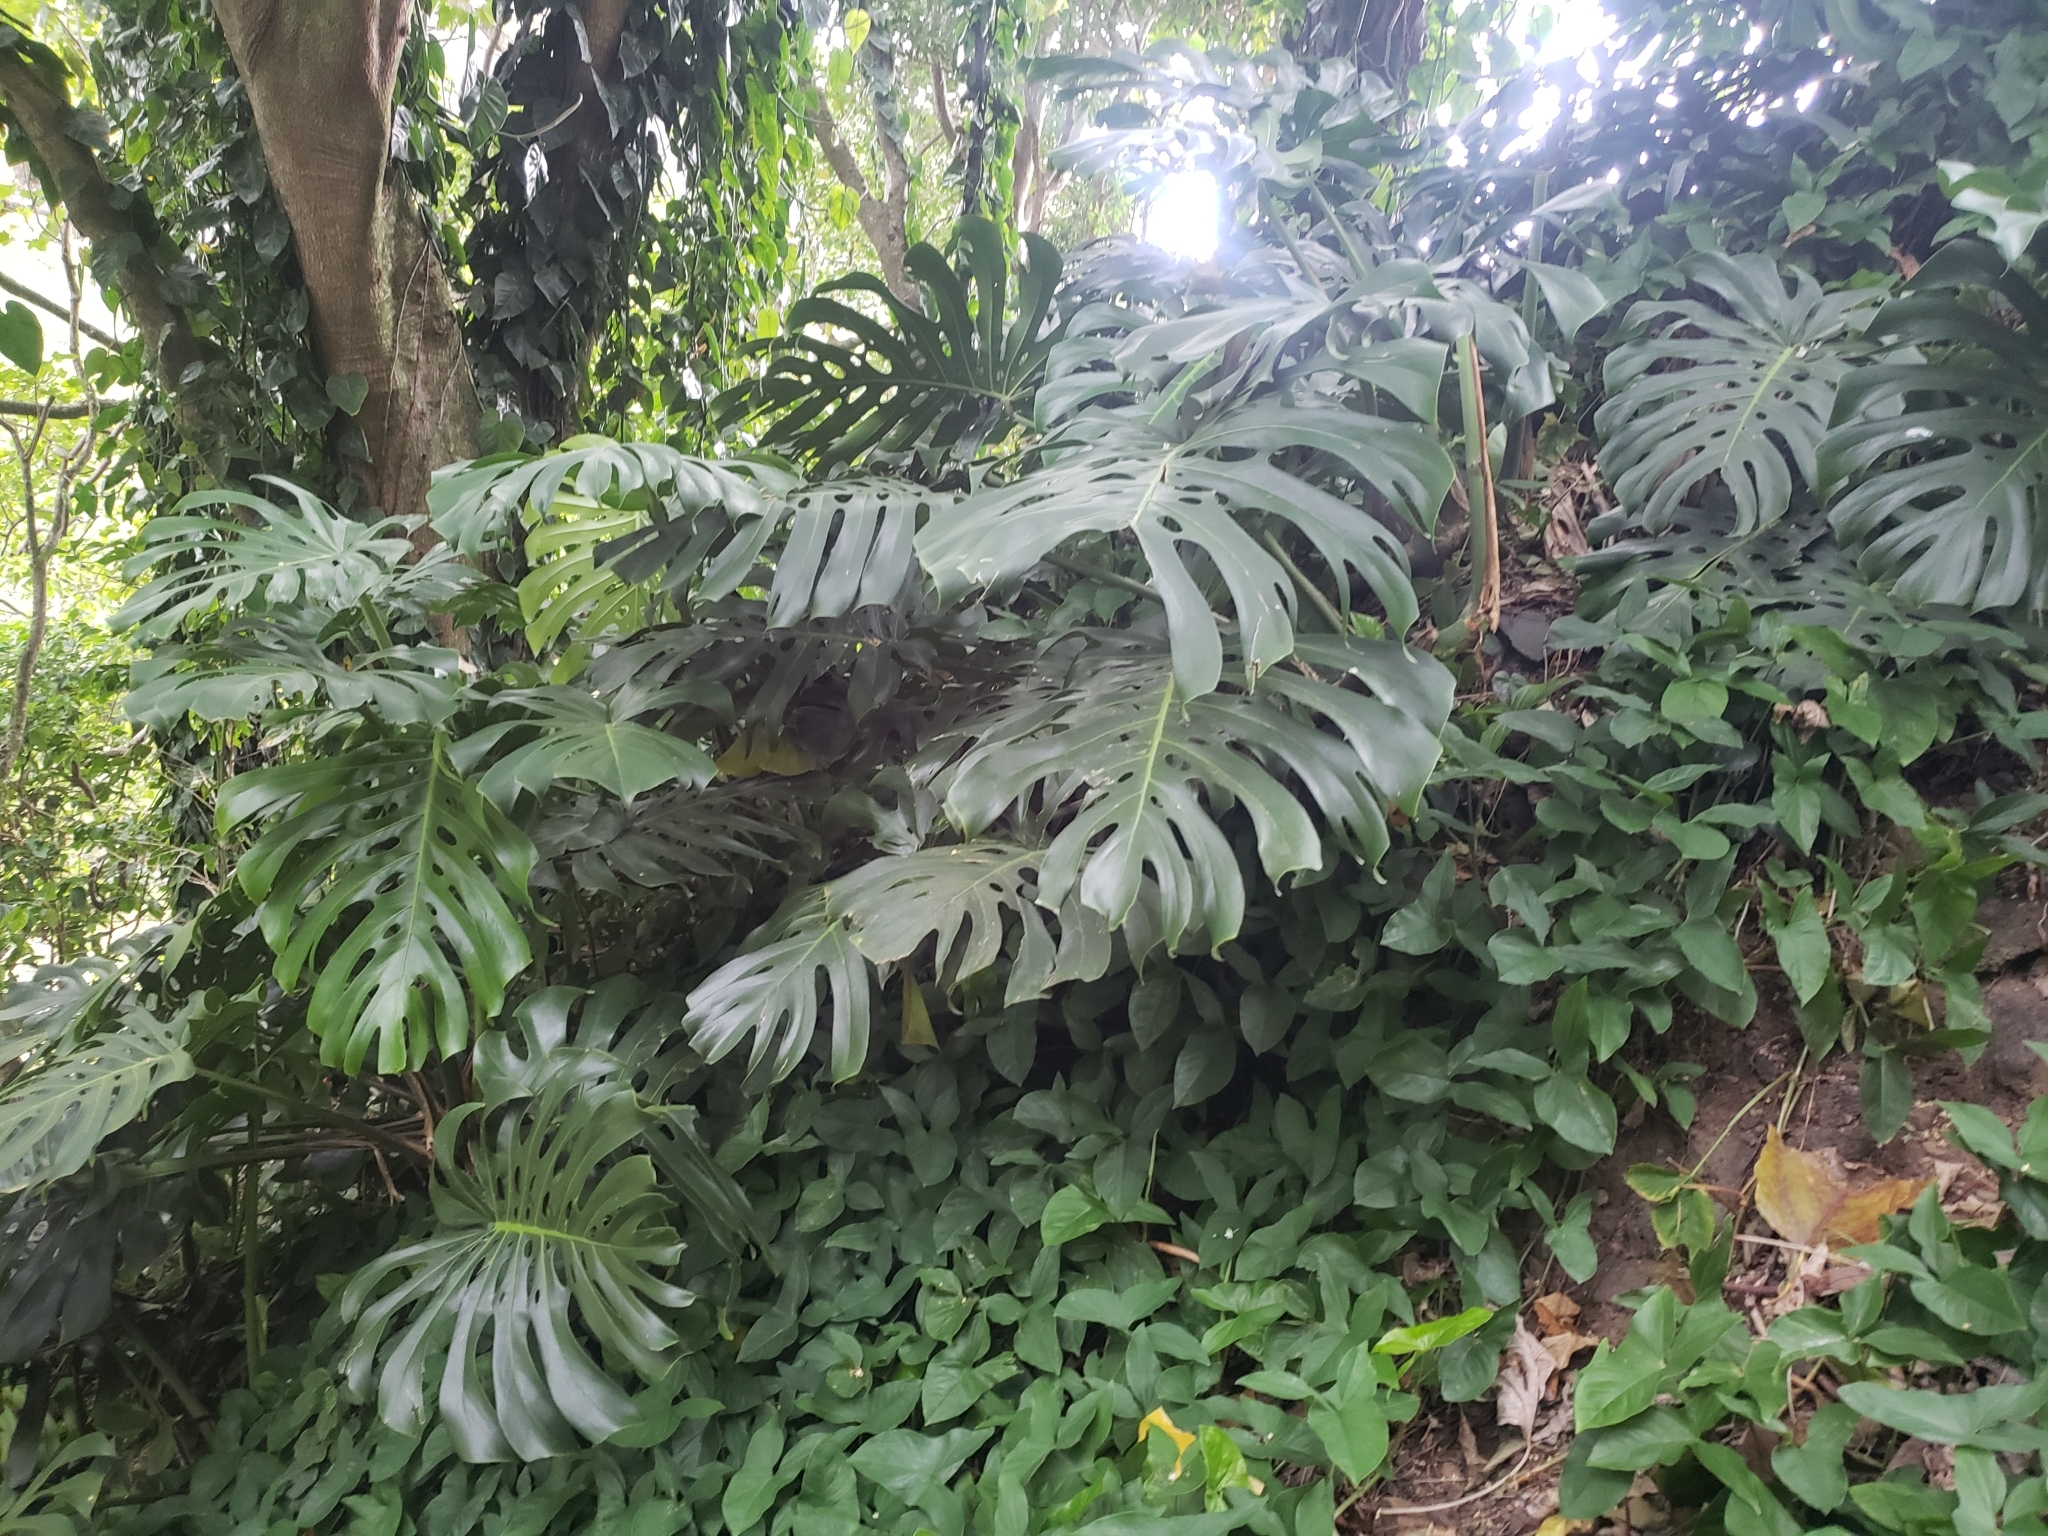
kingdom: Plantae
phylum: Tracheophyta
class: Liliopsida
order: Alismatales
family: Araceae
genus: Monstera
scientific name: Monstera deliciosa
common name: Cut-leaf-philodendron
